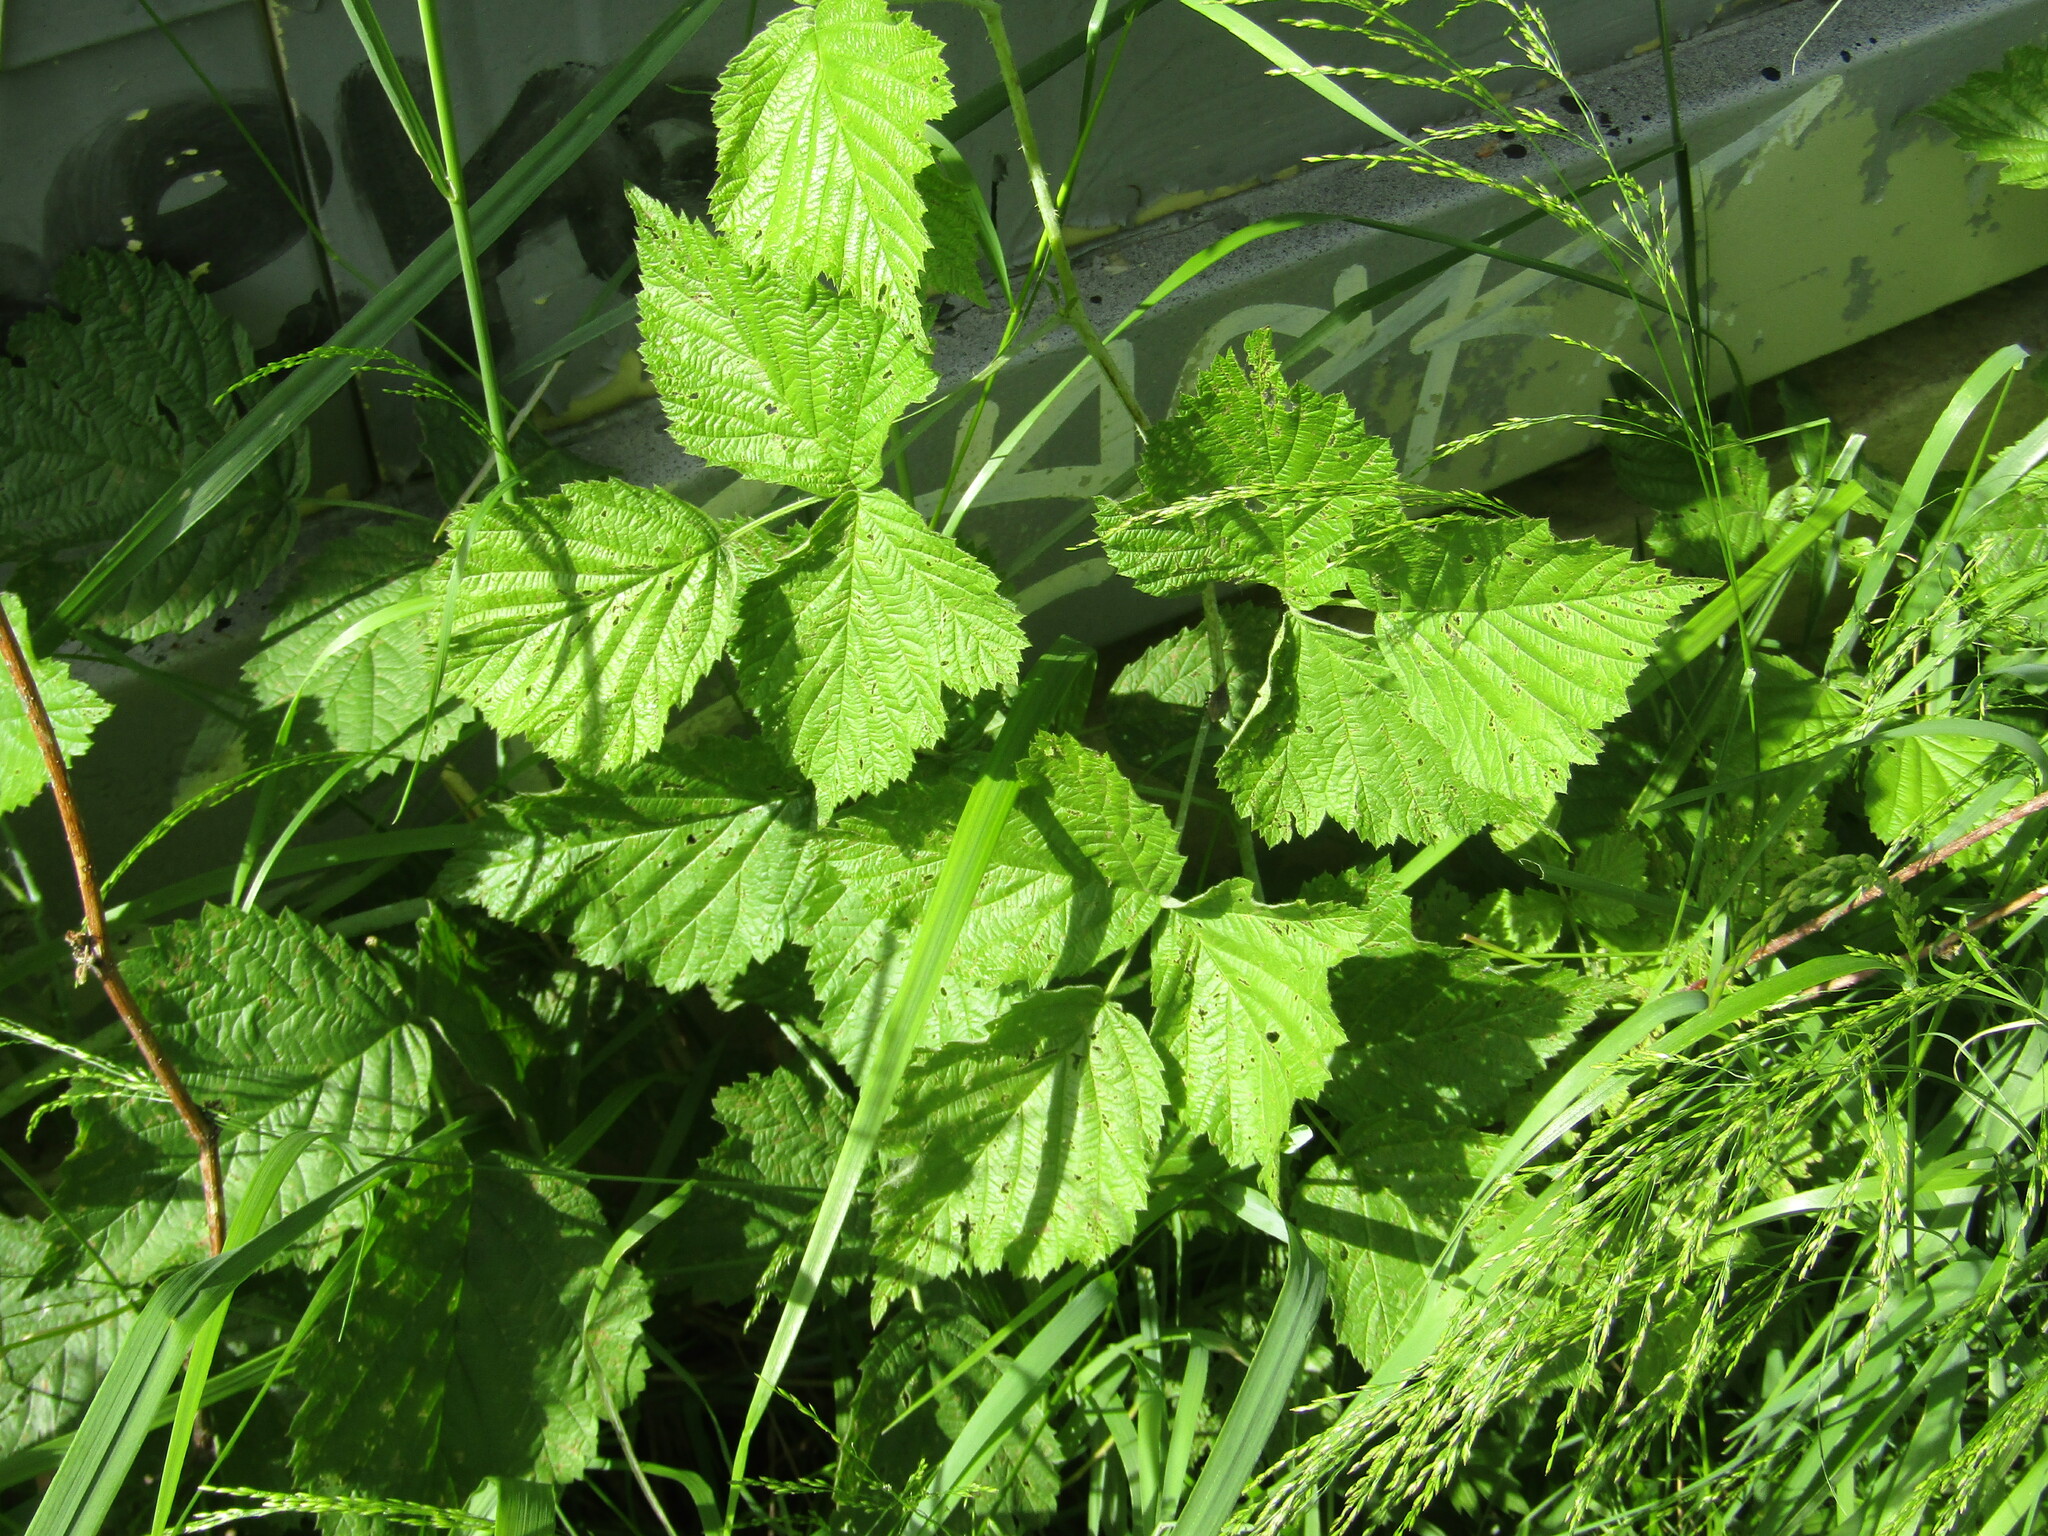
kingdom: Plantae
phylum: Tracheophyta
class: Magnoliopsida
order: Rosales
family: Rosaceae
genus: Rubus
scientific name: Rubus caesius
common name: Dewberry
